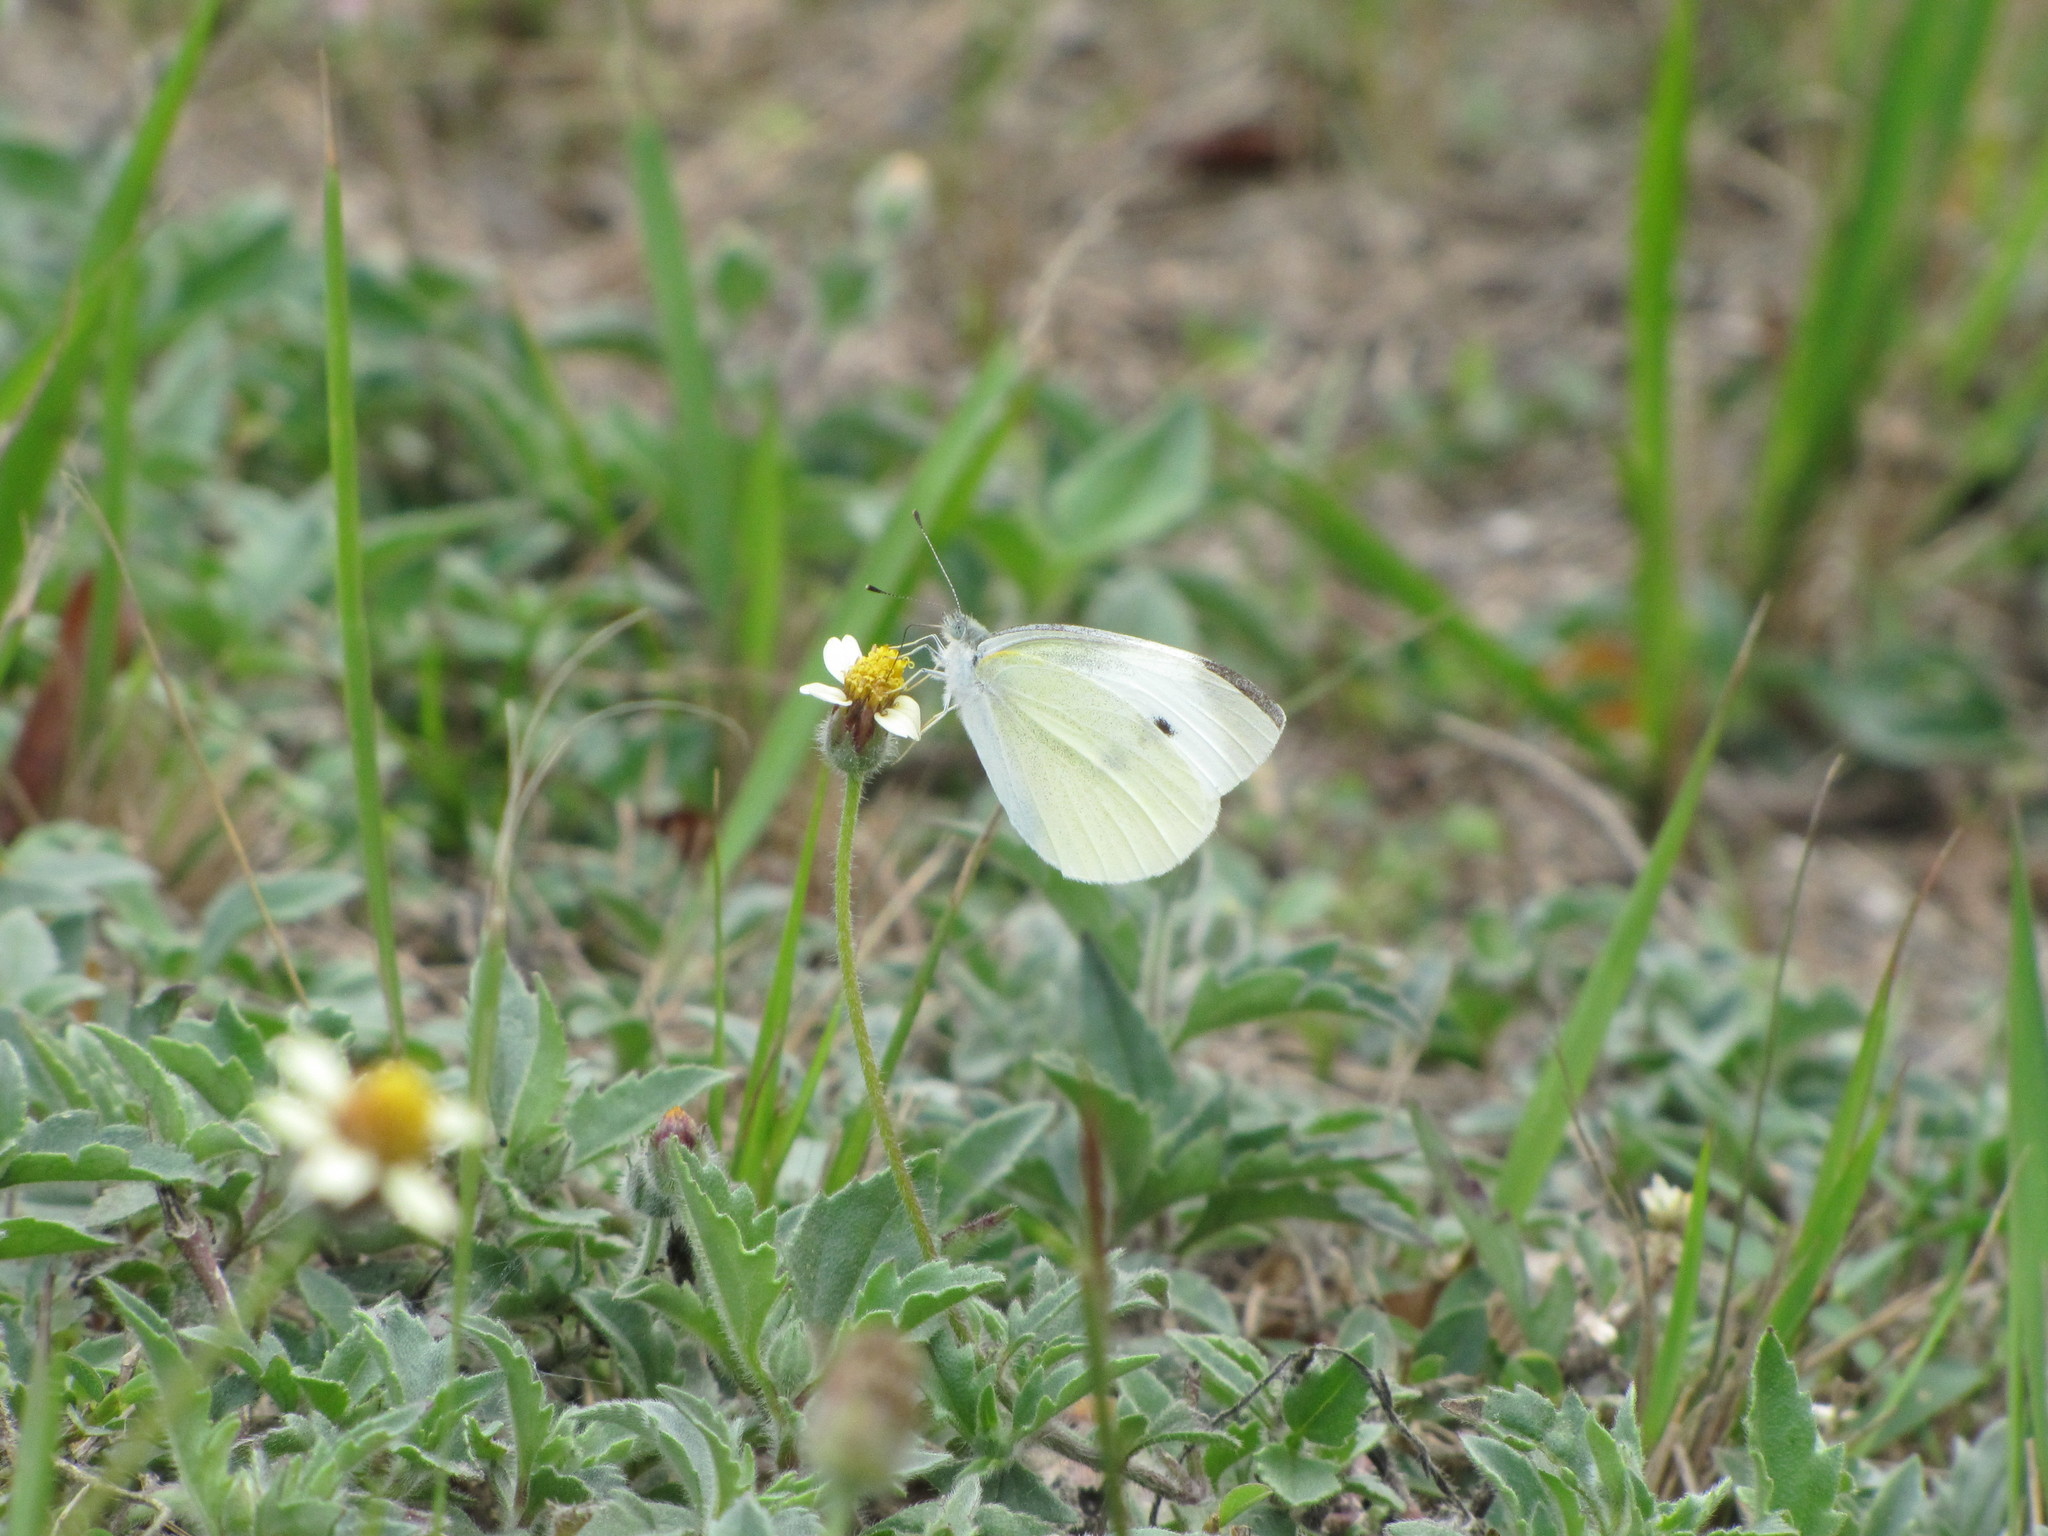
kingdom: Animalia
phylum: Arthropoda
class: Insecta
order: Lepidoptera
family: Pieridae
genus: Pieris
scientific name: Pieris rapae
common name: Small white
